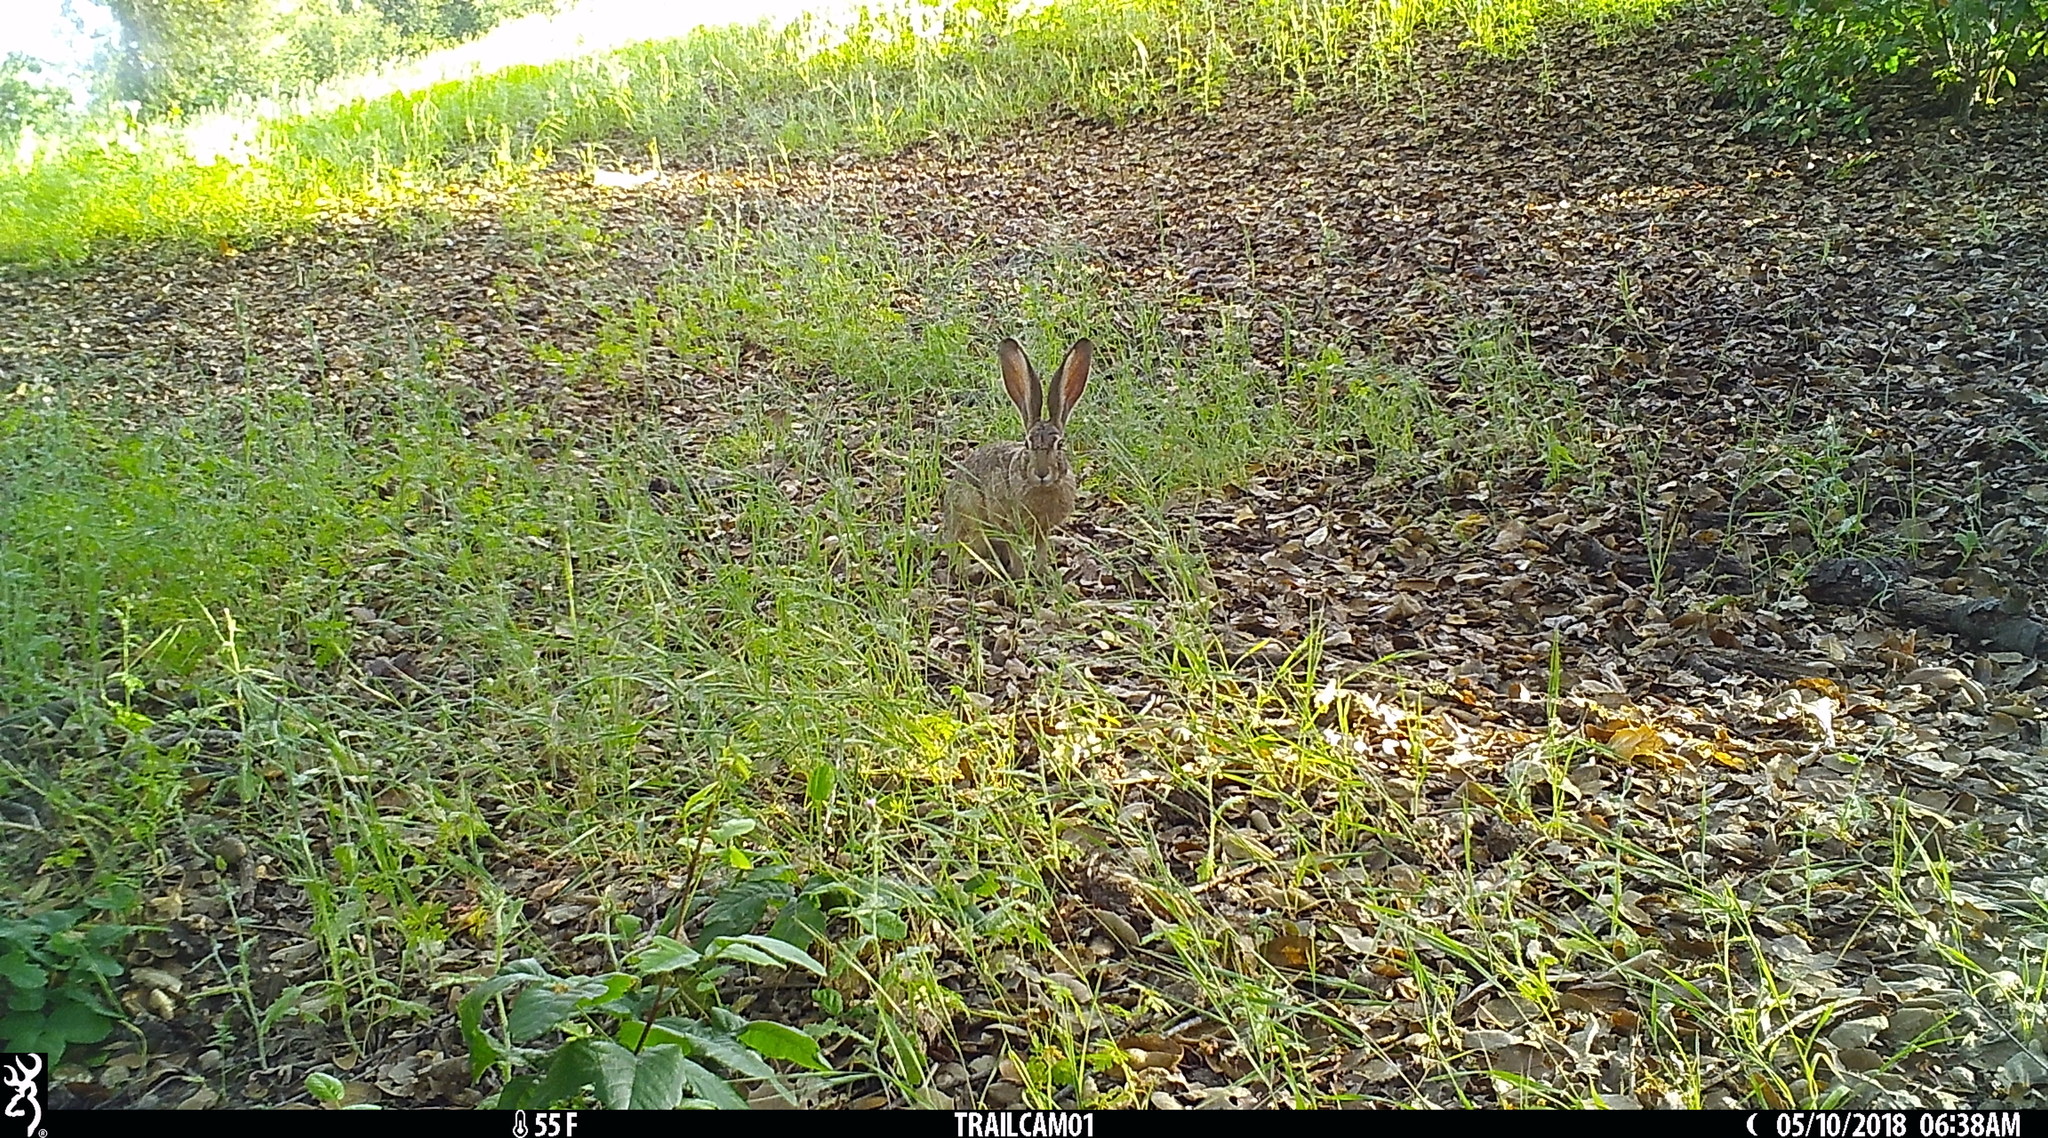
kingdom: Animalia
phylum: Chordata
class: Mammalia
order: Lagomorpha
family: Leporidae
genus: Lepus
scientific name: Lepus californicus
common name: Black-tailed jackrabbit
